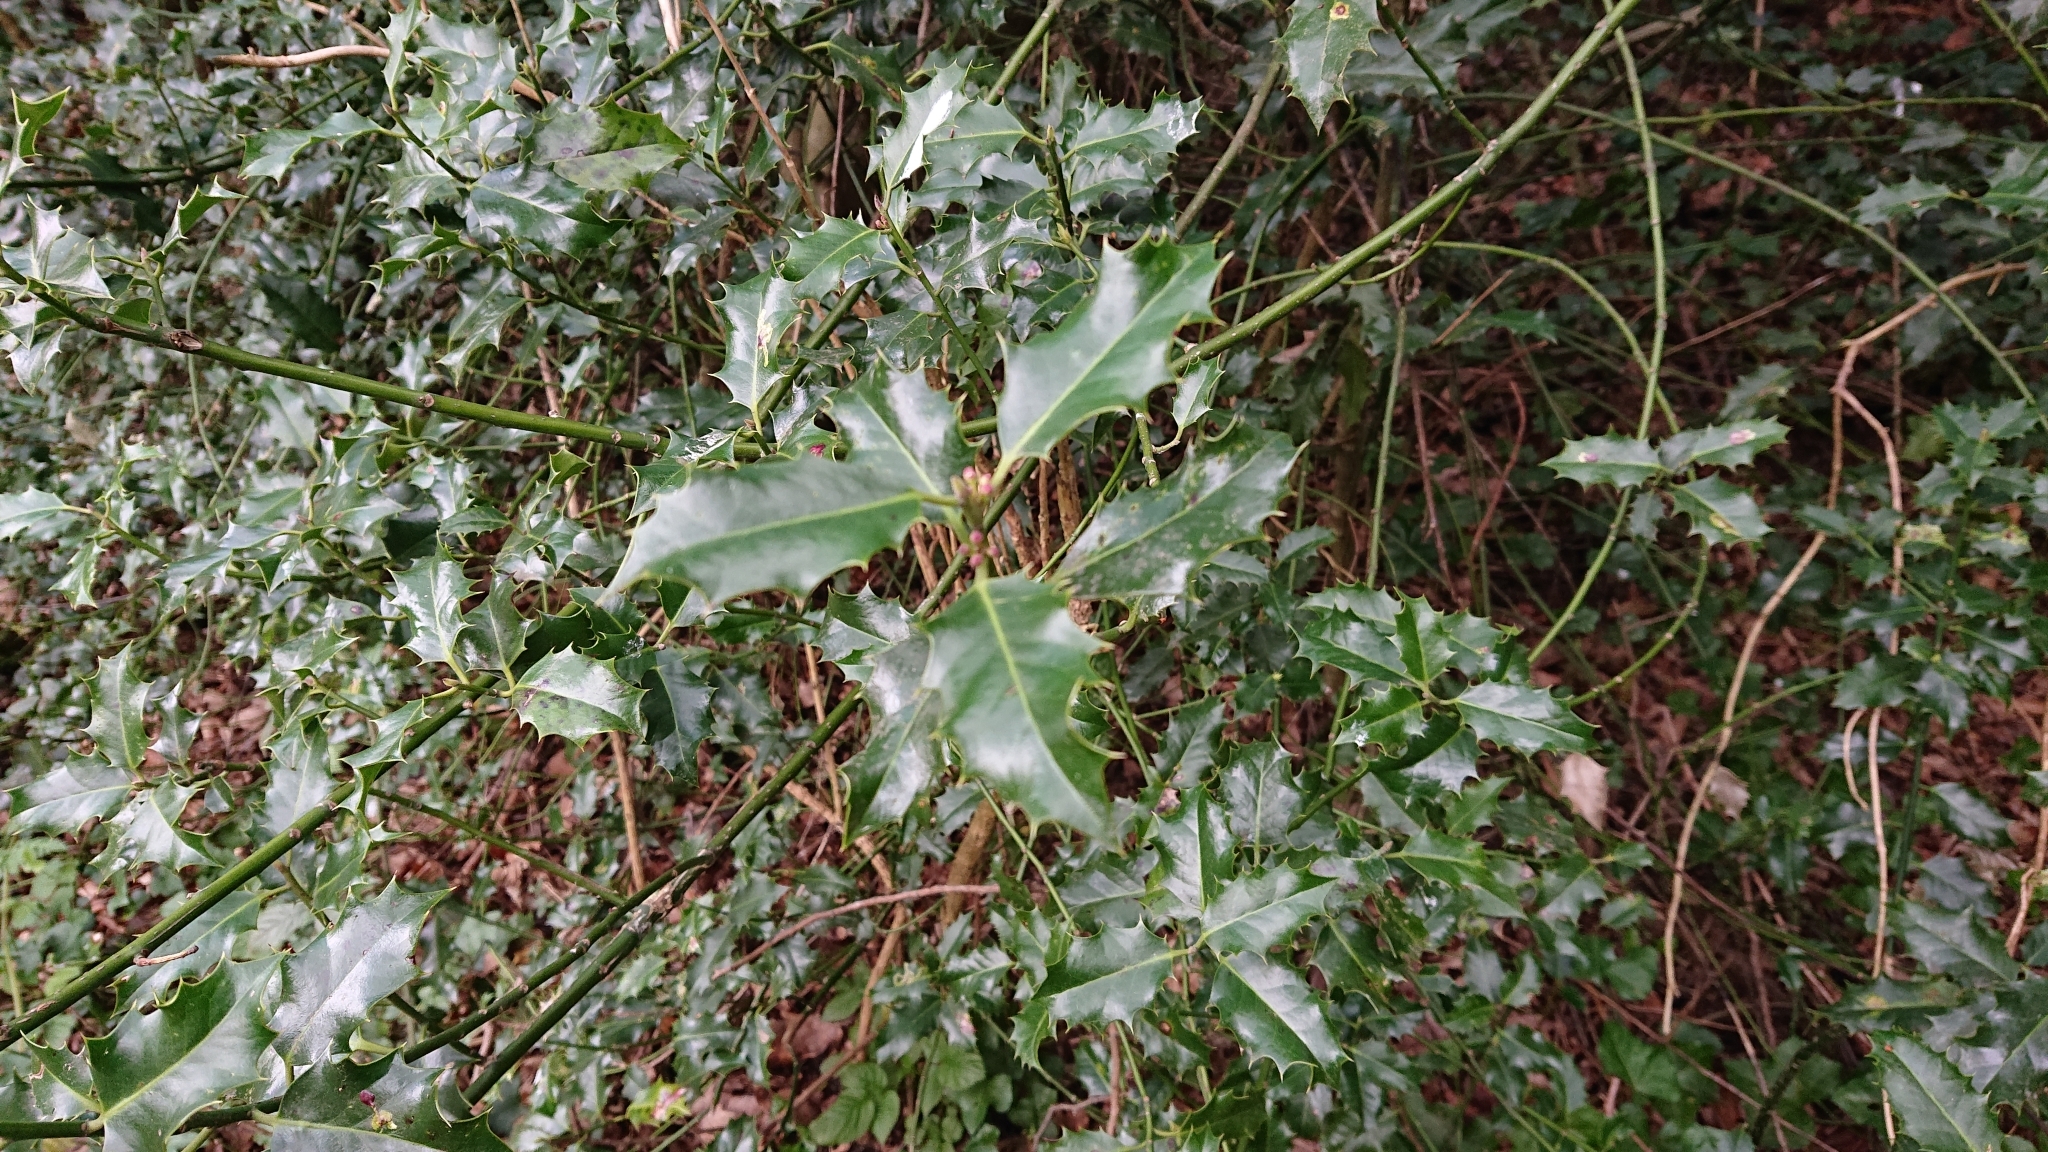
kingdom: Plantae
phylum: Tracheophyta
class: Magnoliopsida
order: Aquifoliales
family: Aquifoliaceae
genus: Ilex
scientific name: Ilex aquifolium
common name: English holly
